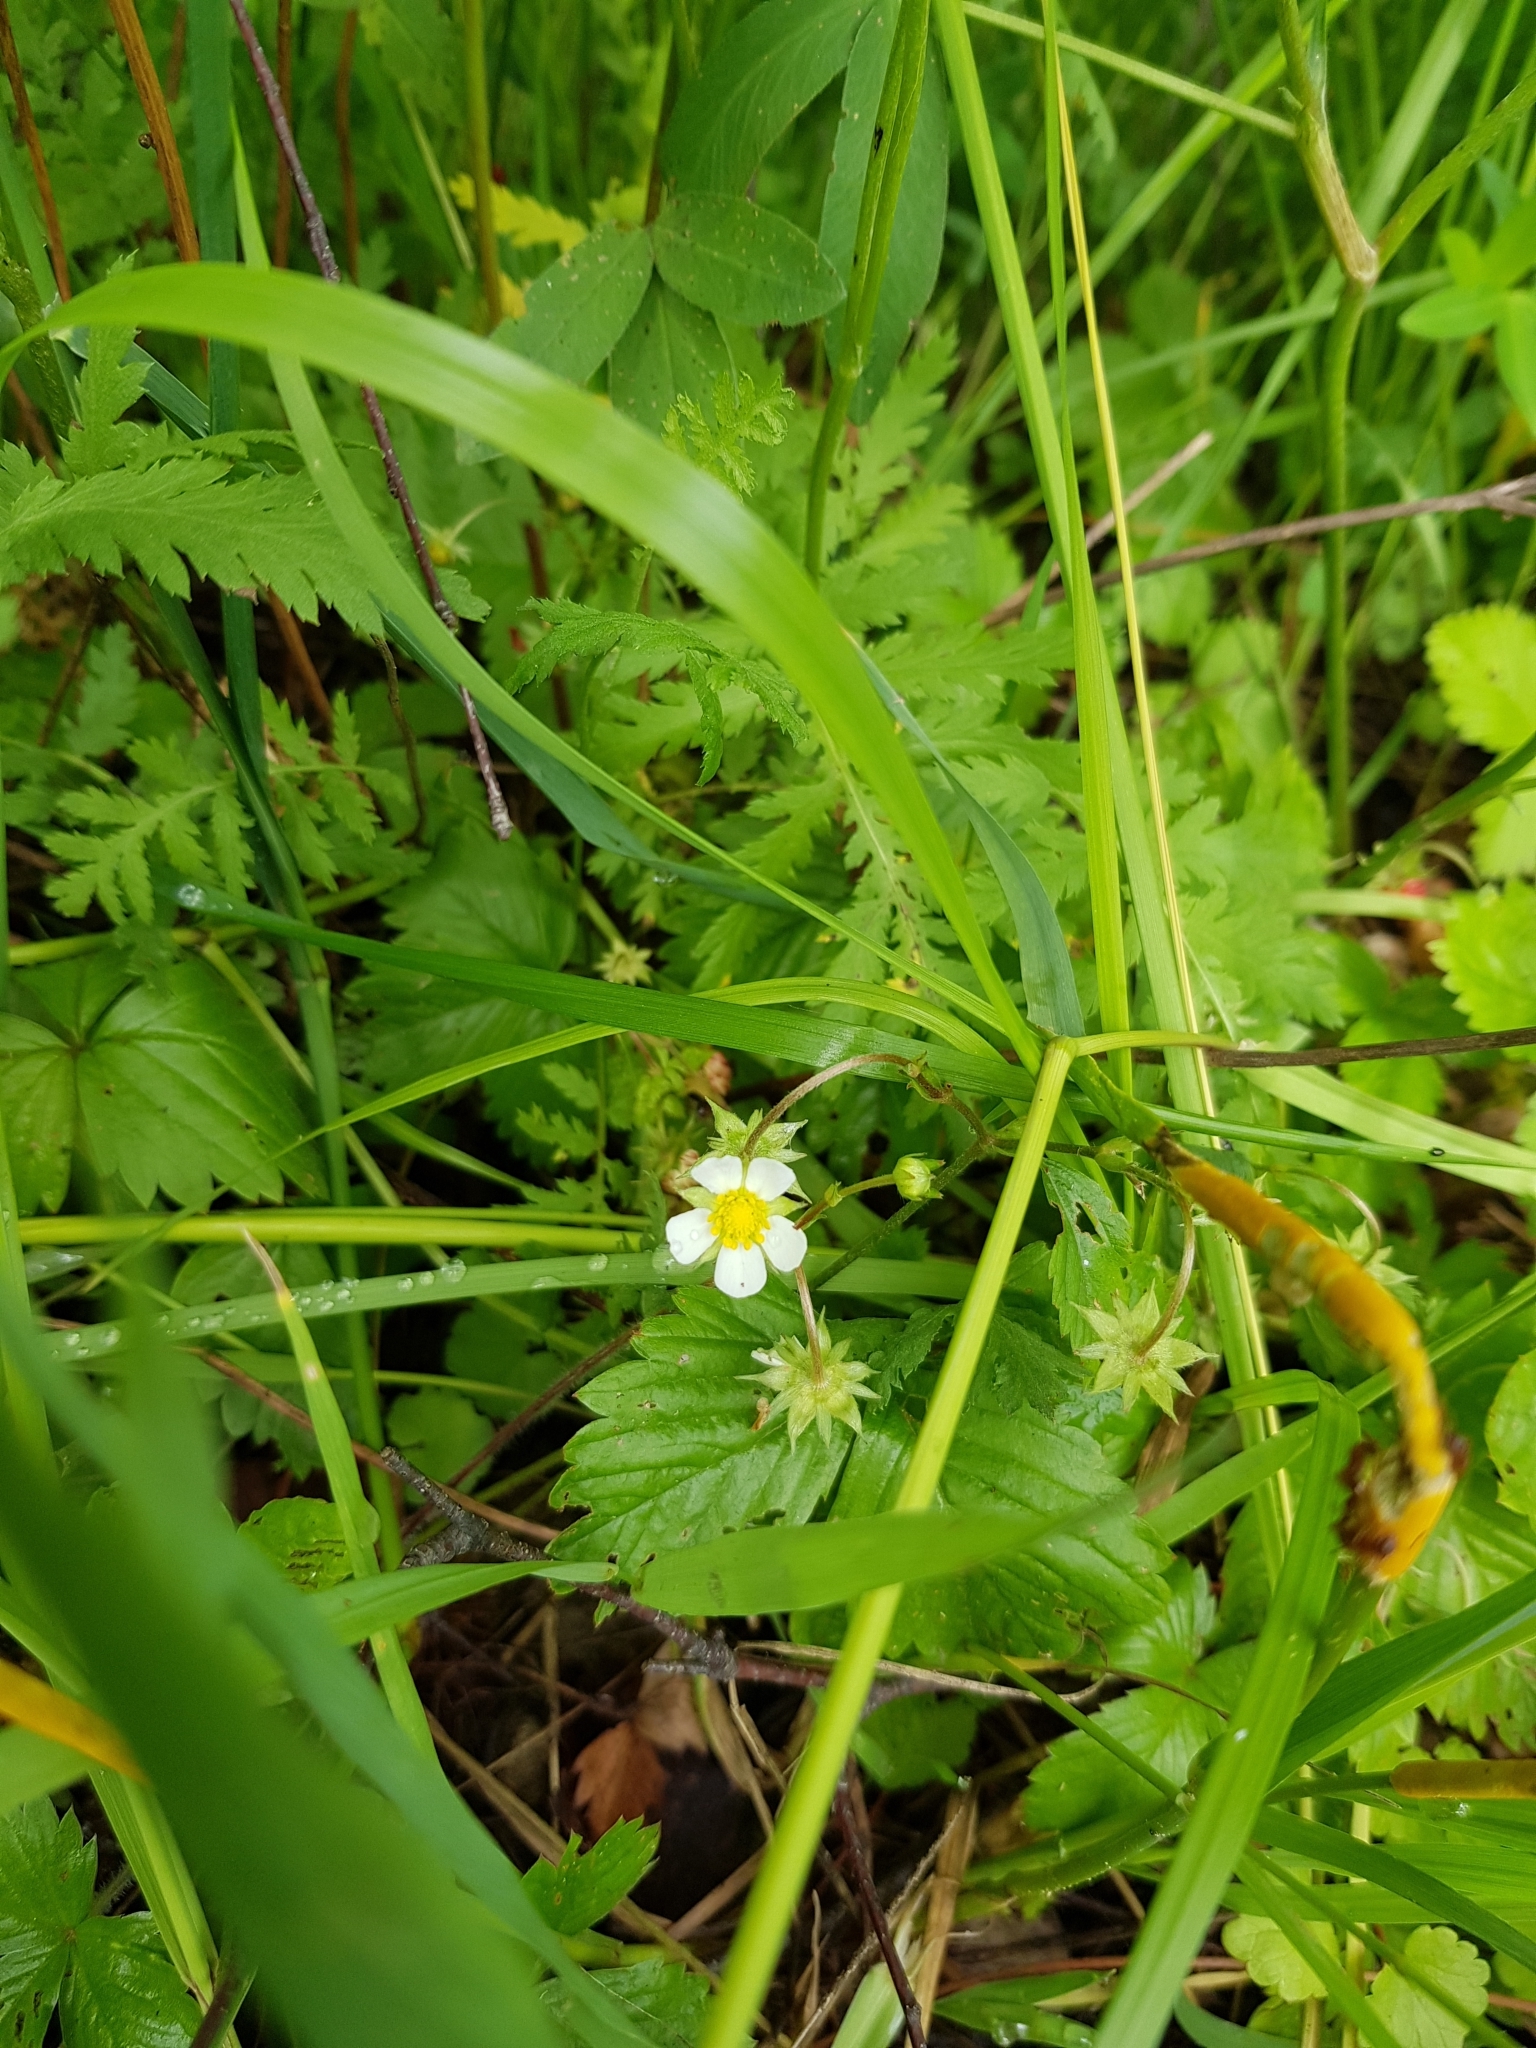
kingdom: Plantae
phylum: Tracheophyta
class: Magnoliopsida
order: Rosales
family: Rosaceae
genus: Fragaria
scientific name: Fragaria vesca
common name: Wild strawberry
